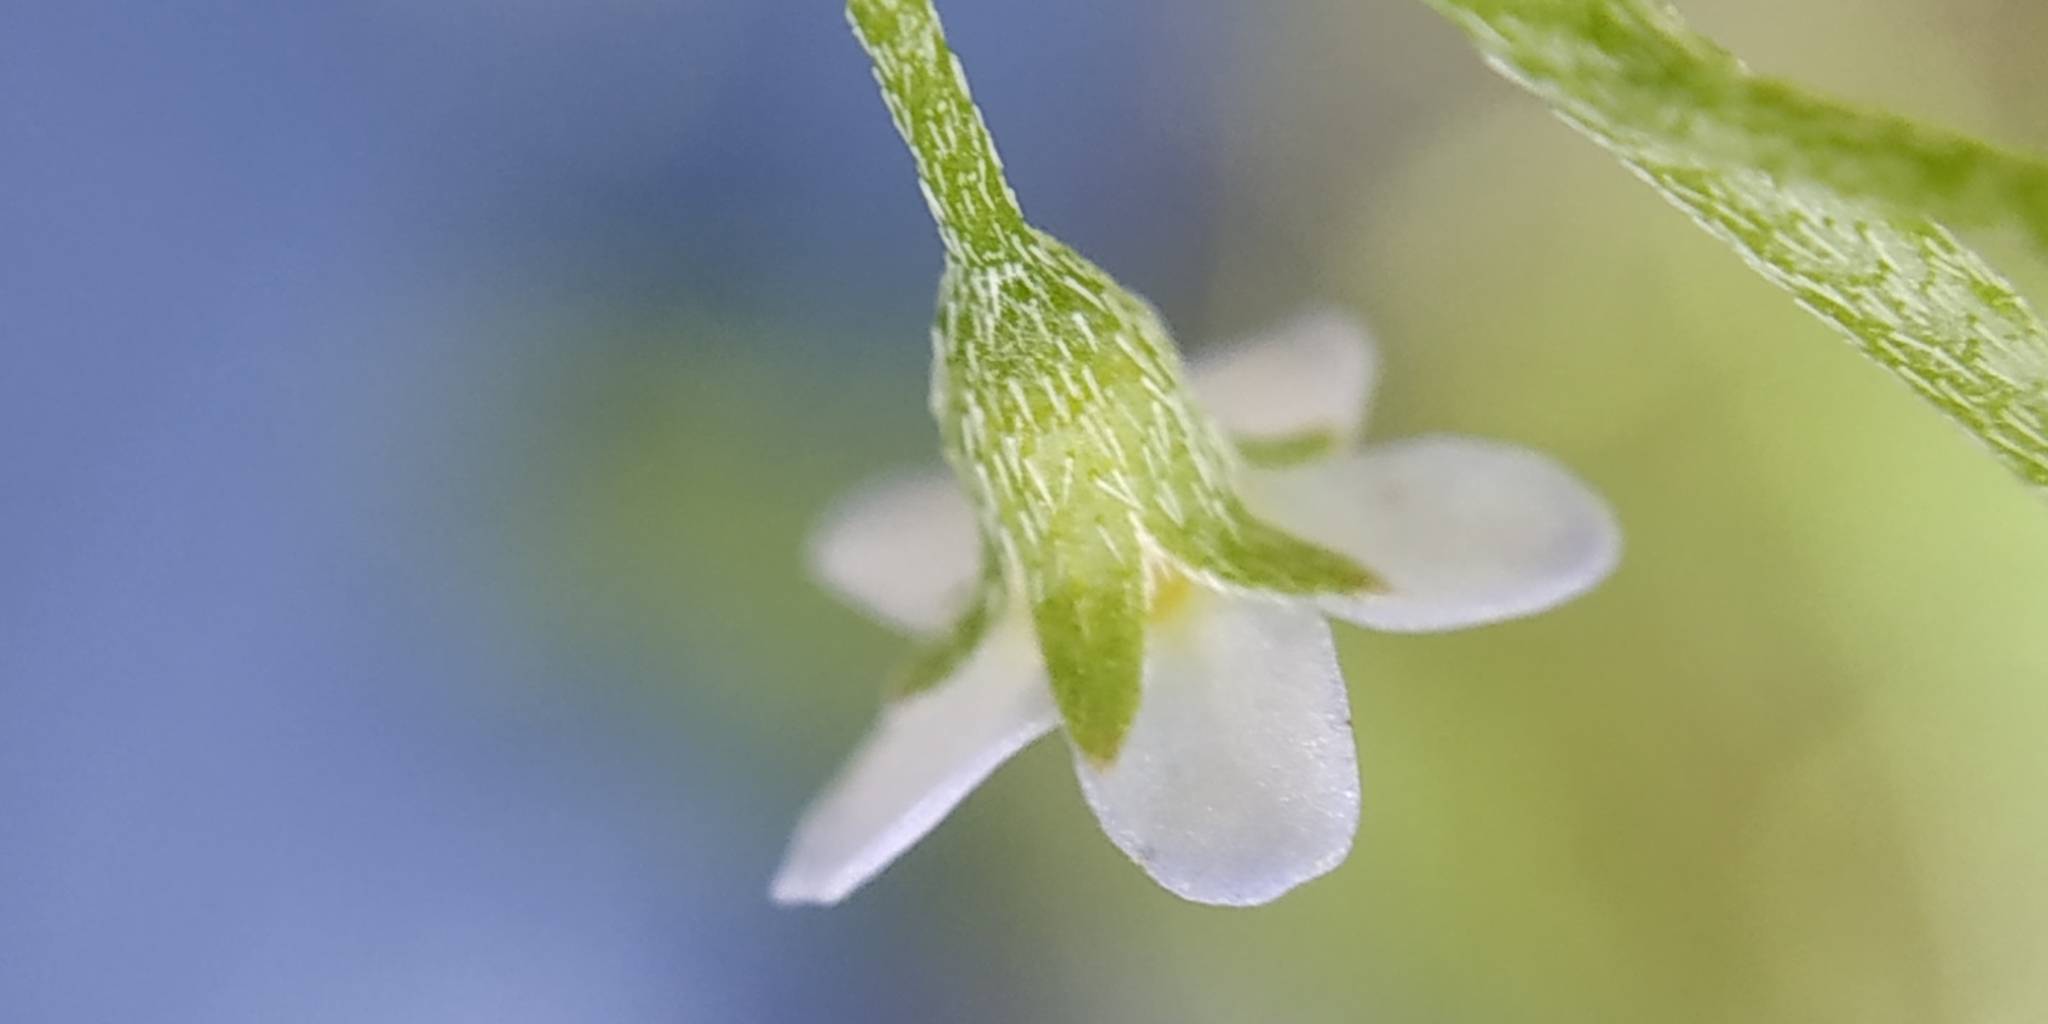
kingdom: Plantae
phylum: Tracheophyta
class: Magnoliopsida
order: Boraginales
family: Boraginaceae
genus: Myosotis
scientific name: Myosotis scorpioides
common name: Water forget-me-not
